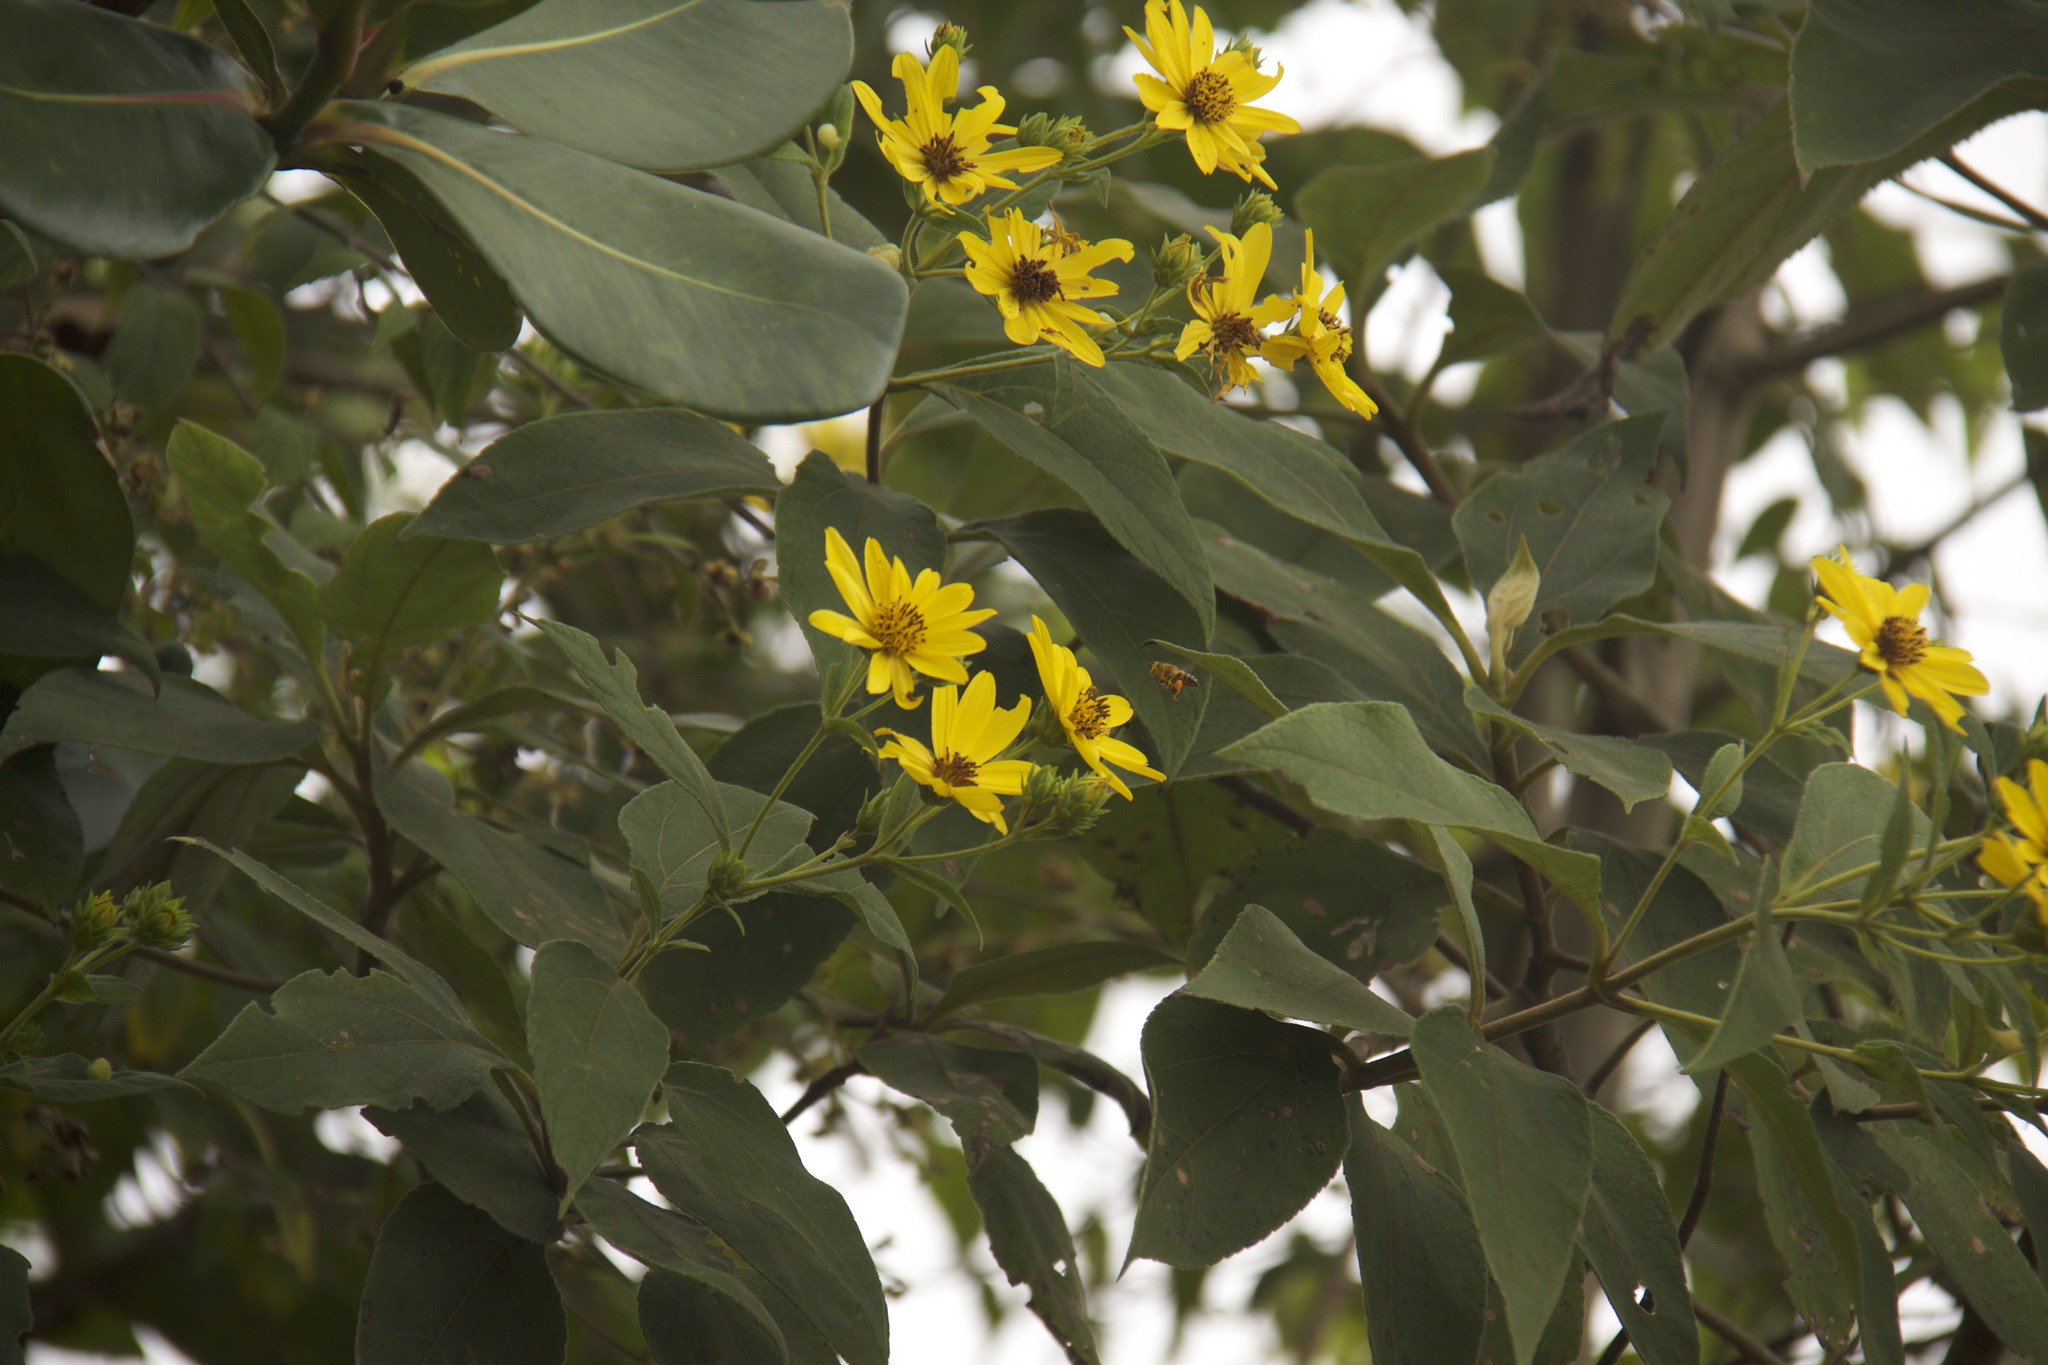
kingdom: Plantae
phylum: Tracheophyta
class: Magnoliopsida
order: Asterales
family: Asteraceae
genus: Oyedaea
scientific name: Oyedaea verbesinoides
